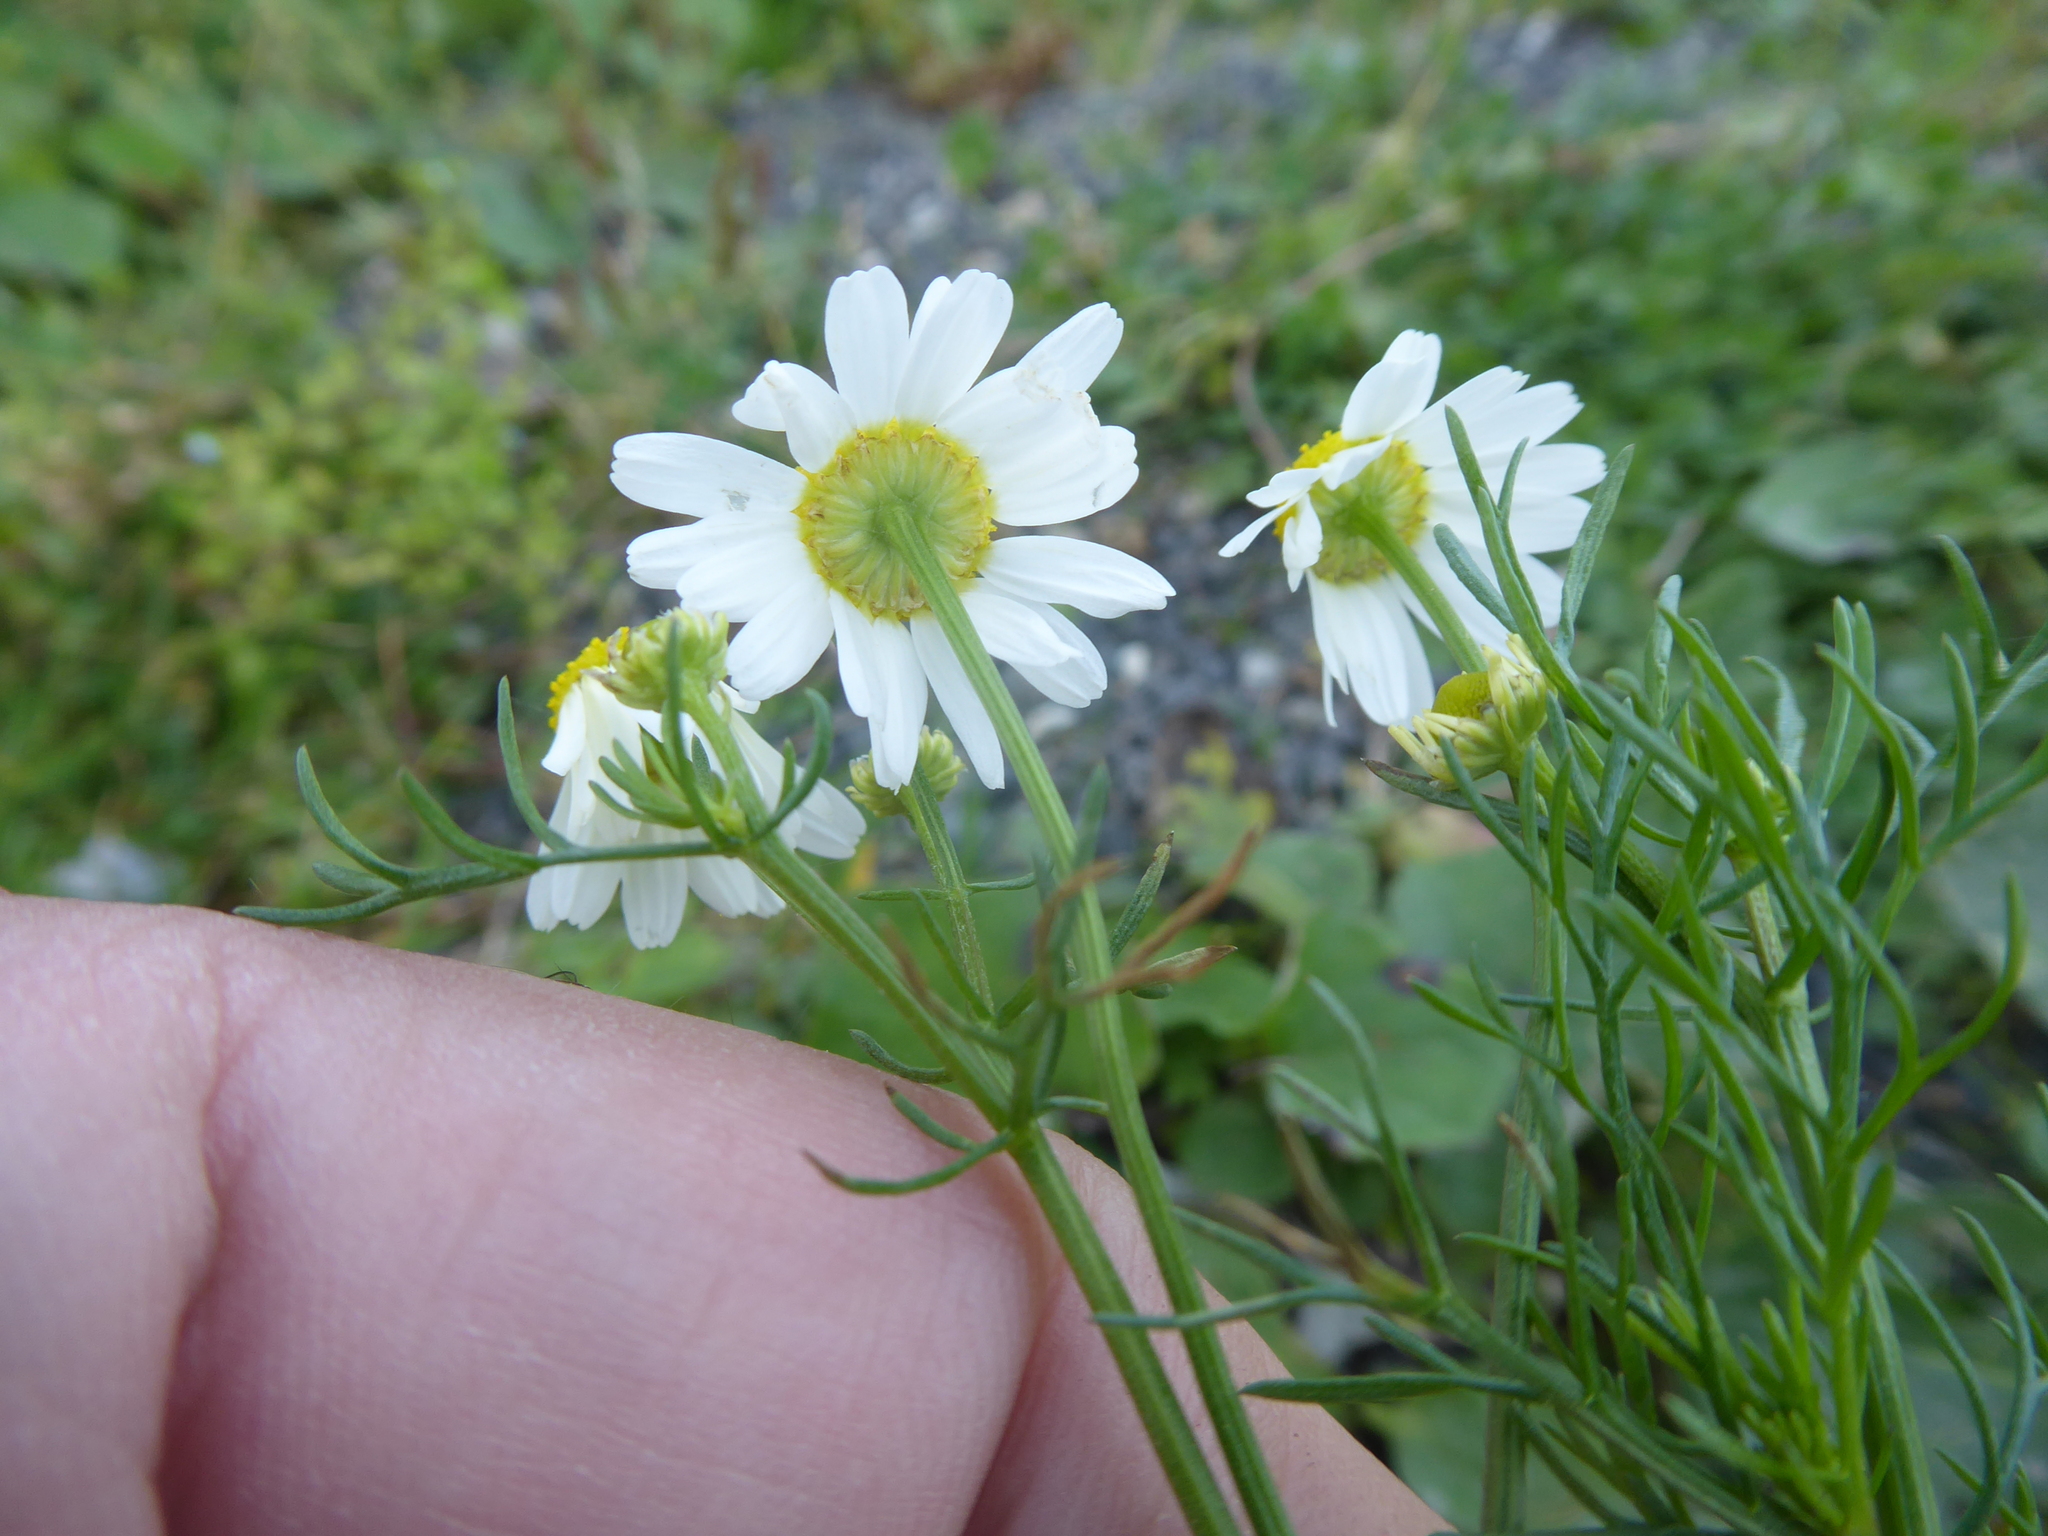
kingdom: Plantae
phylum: Tracheophyta
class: Magnoliopsida
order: Asterales
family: Asteraceae
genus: Matricaria
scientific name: Matricaria chamomilla
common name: Scented mayweed
